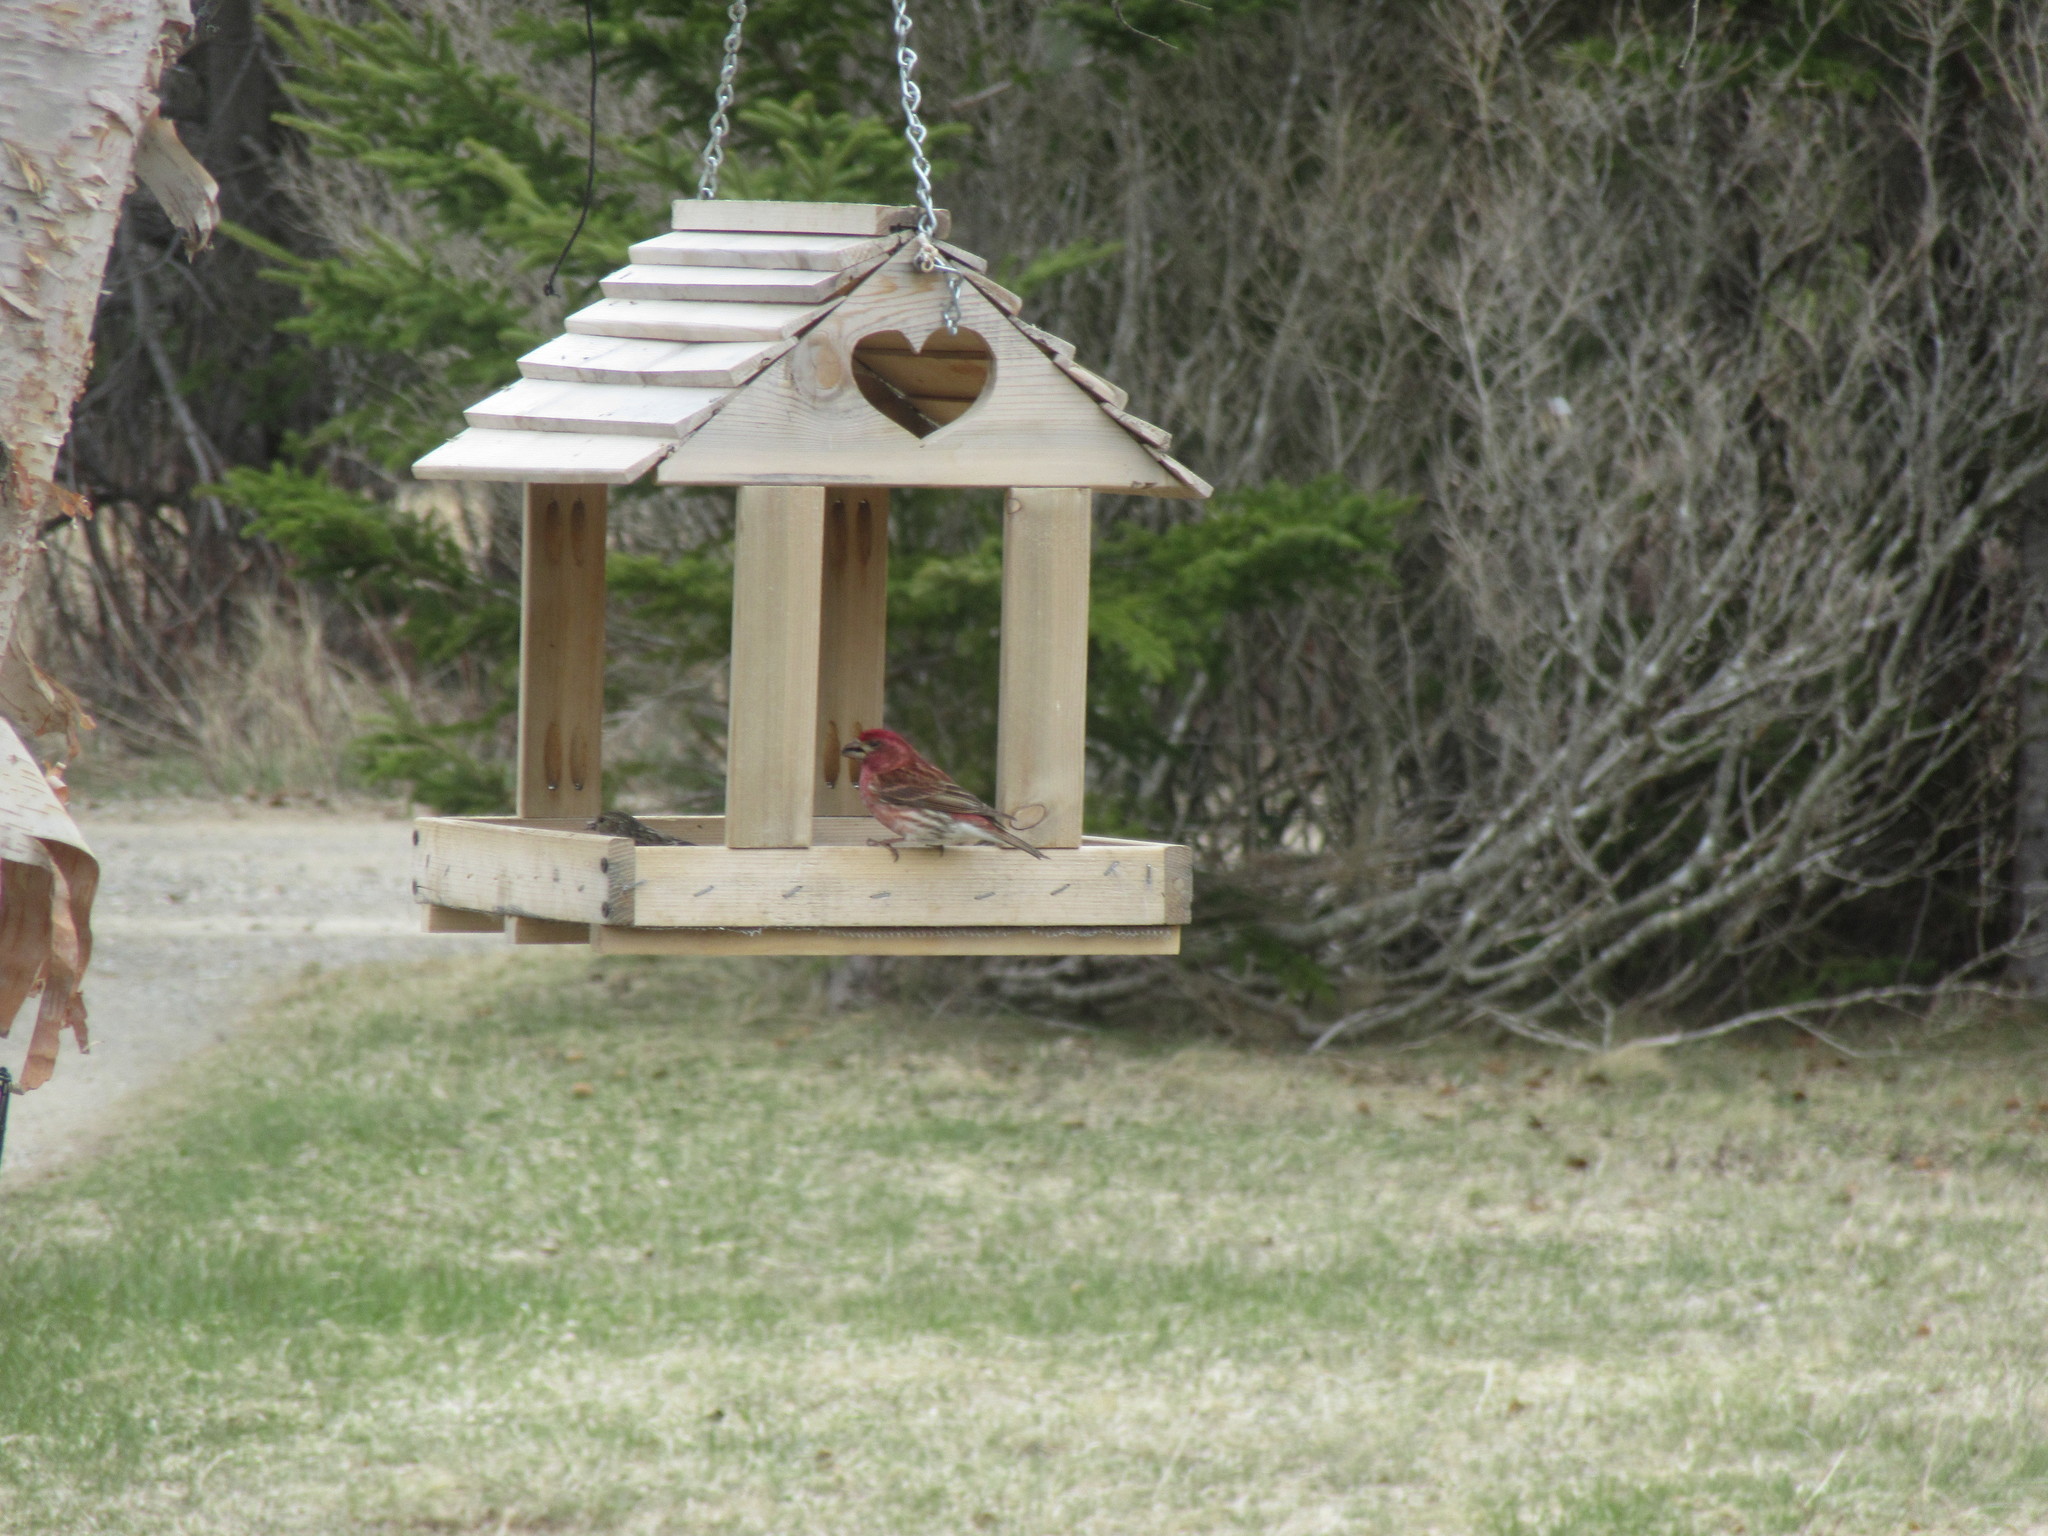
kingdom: Animalia
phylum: Chordata
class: Aves
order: Passeriformes
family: Fringillidae
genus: Haemorhous
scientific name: Haemorhous purpureus
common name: Purple finch
